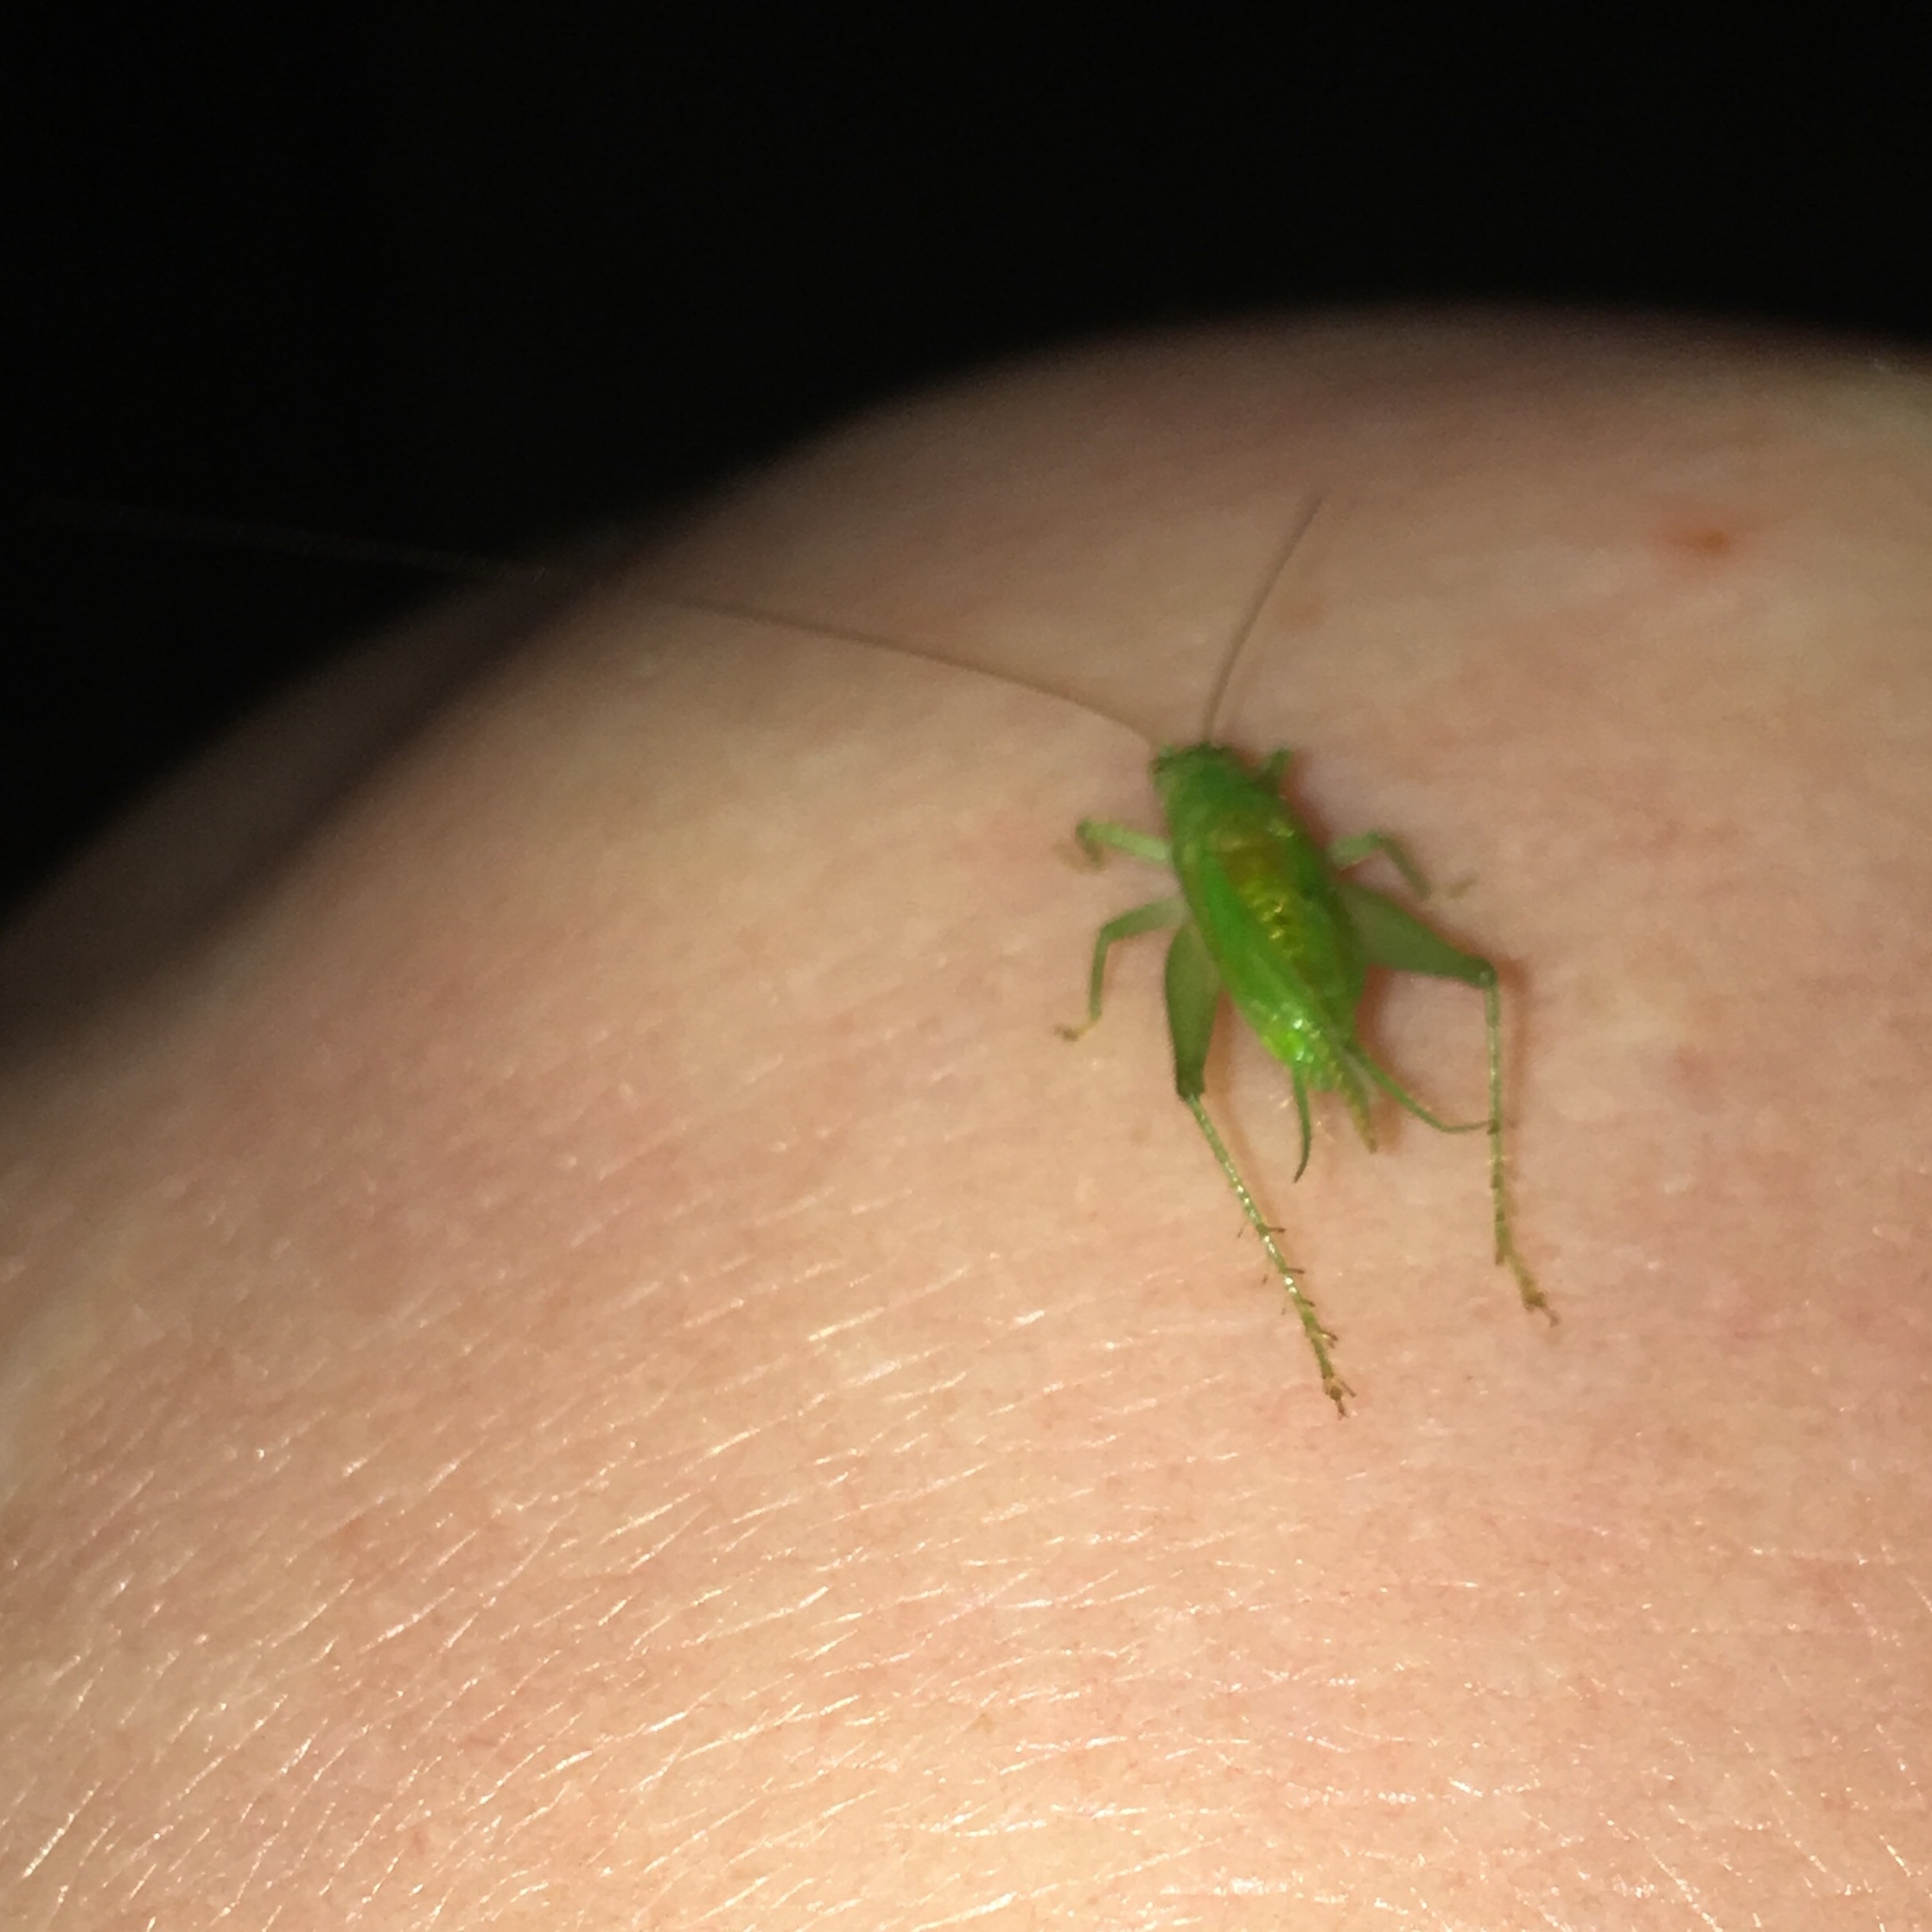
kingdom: Animalia
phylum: Arthropoda
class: Insecta
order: Orthoptera
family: Trigonidiidae
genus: Cyrtoxipha
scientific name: Cyrtoxipha columbiana
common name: Columbian trig
